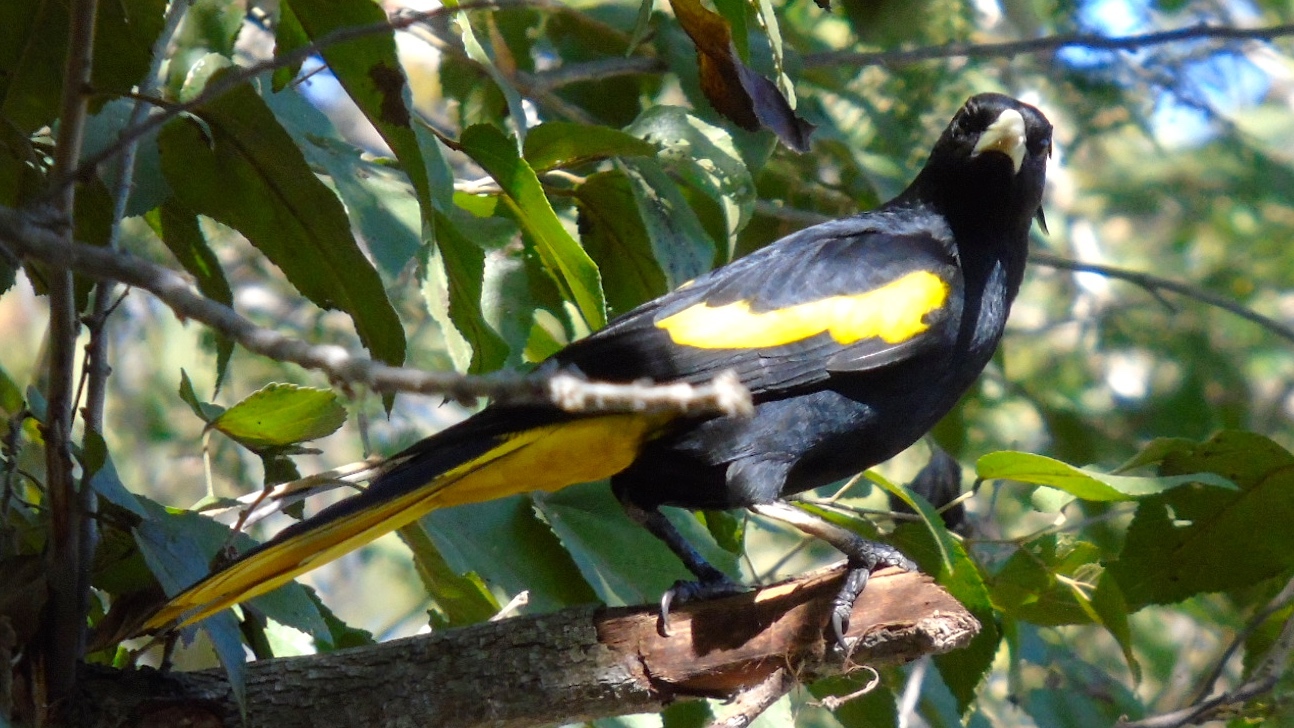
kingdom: Animalia
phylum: Chordata
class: Aves
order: Passeriformes
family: Icteridae
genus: Cacicus
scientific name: Cacicus melanicterus
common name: Yellow-winged cacique
